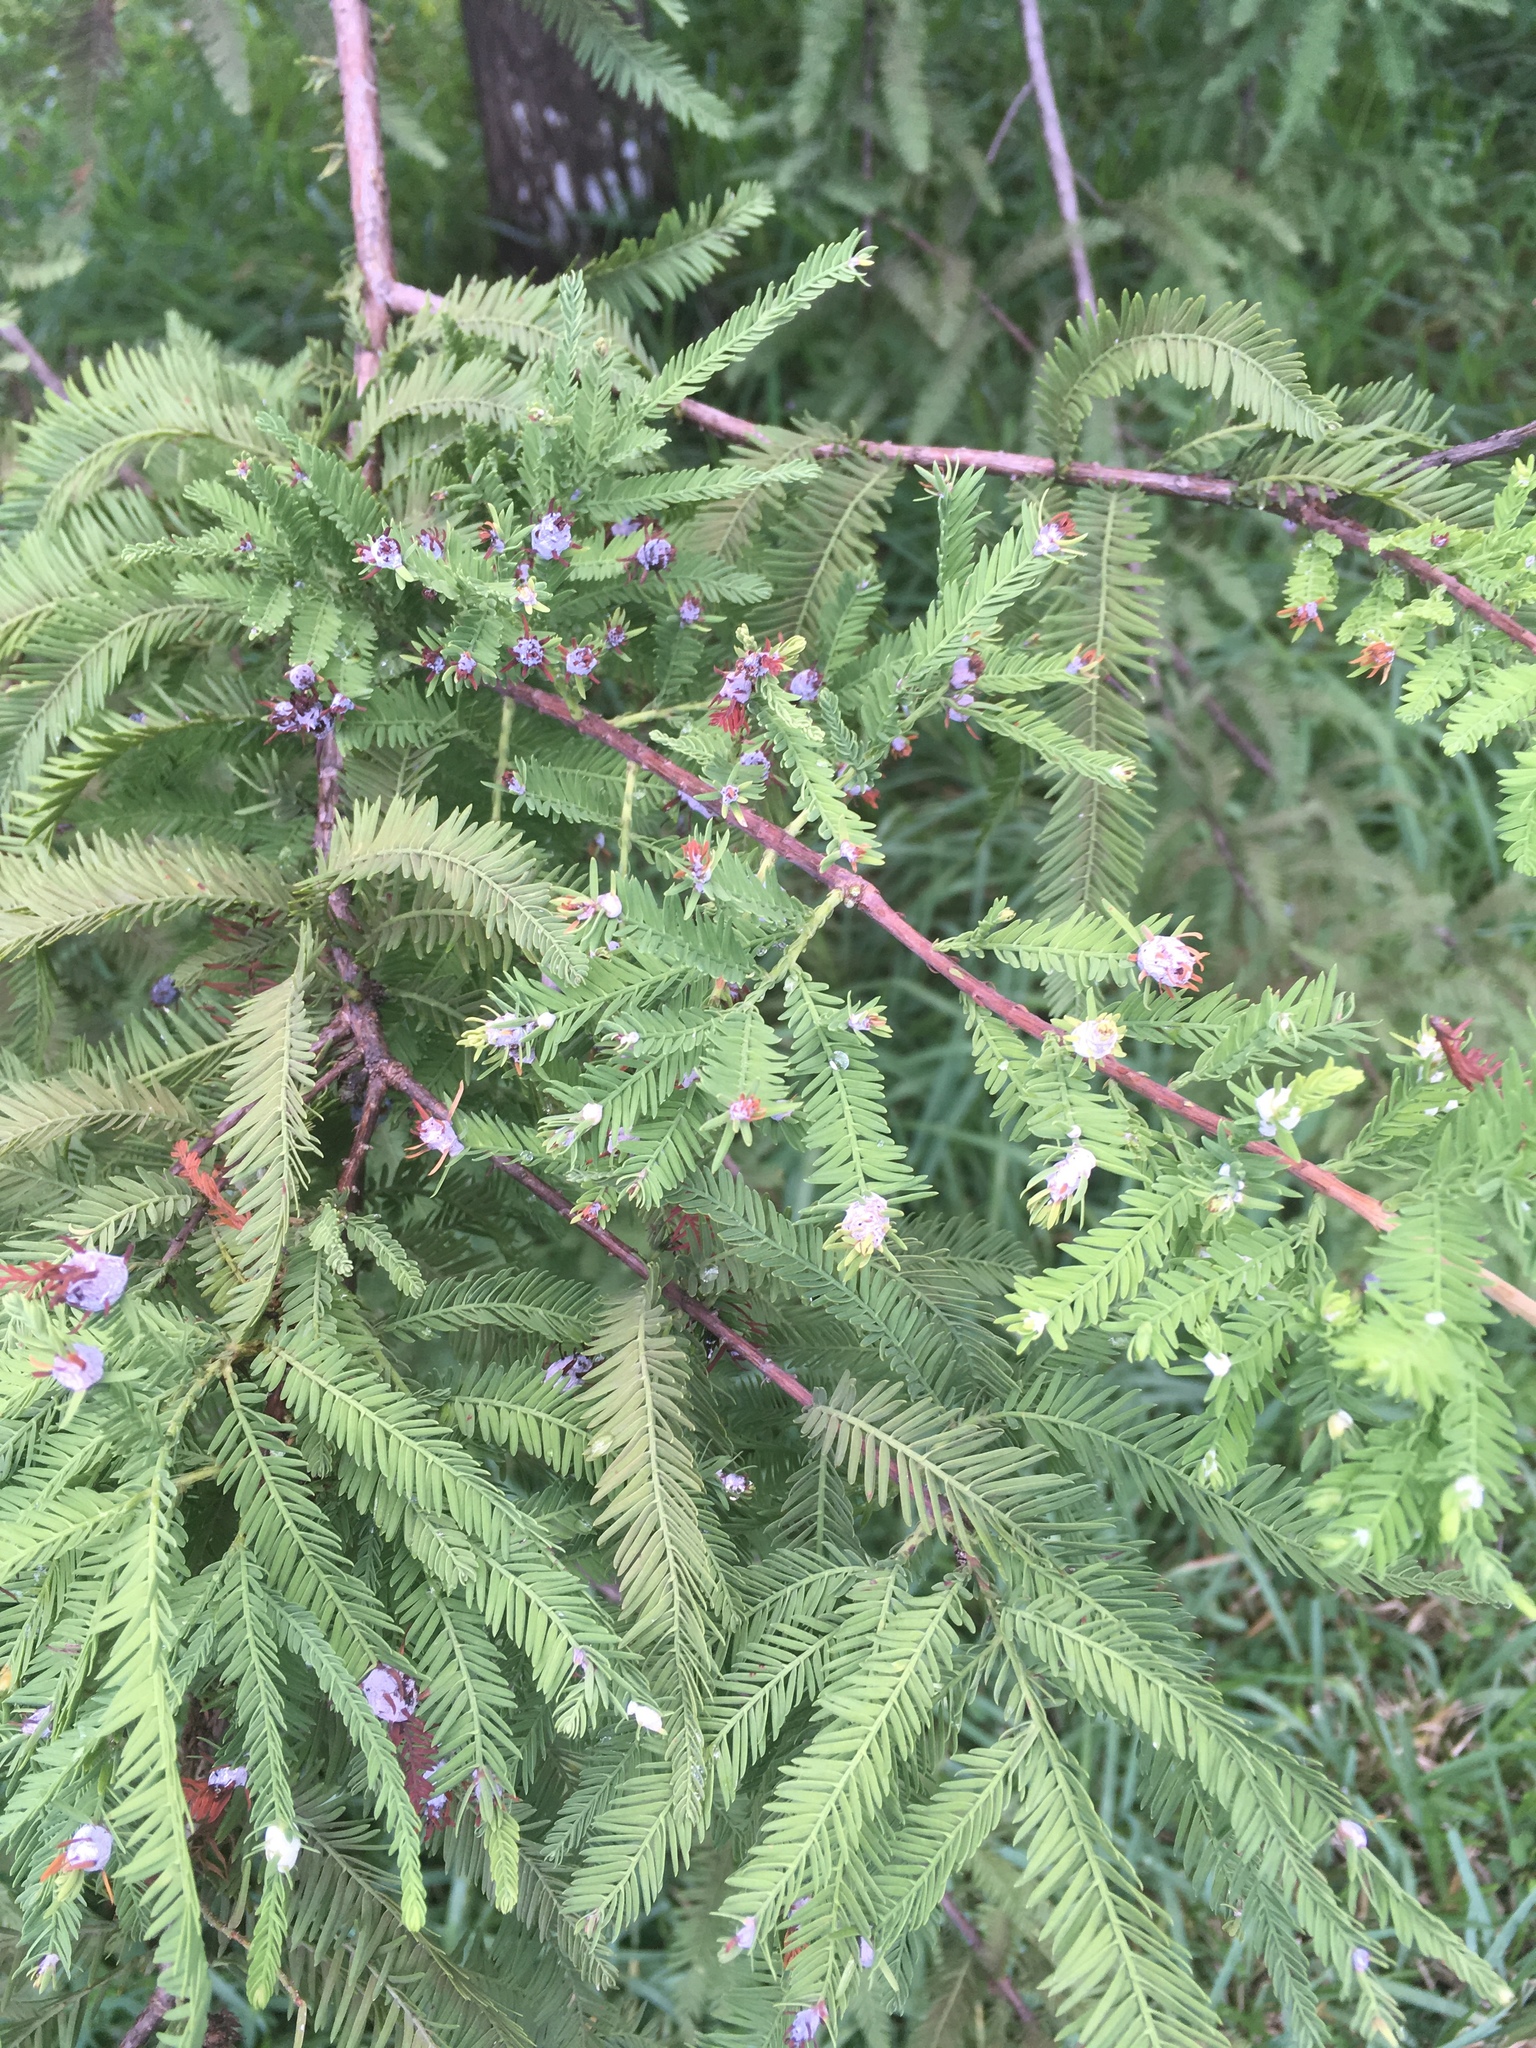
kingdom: Animalia
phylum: Arthropoda
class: Insecta
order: Diptera
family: Cecidomyiidae
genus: Taxodiomyia
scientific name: Taxodiomyia cupressiananassa
